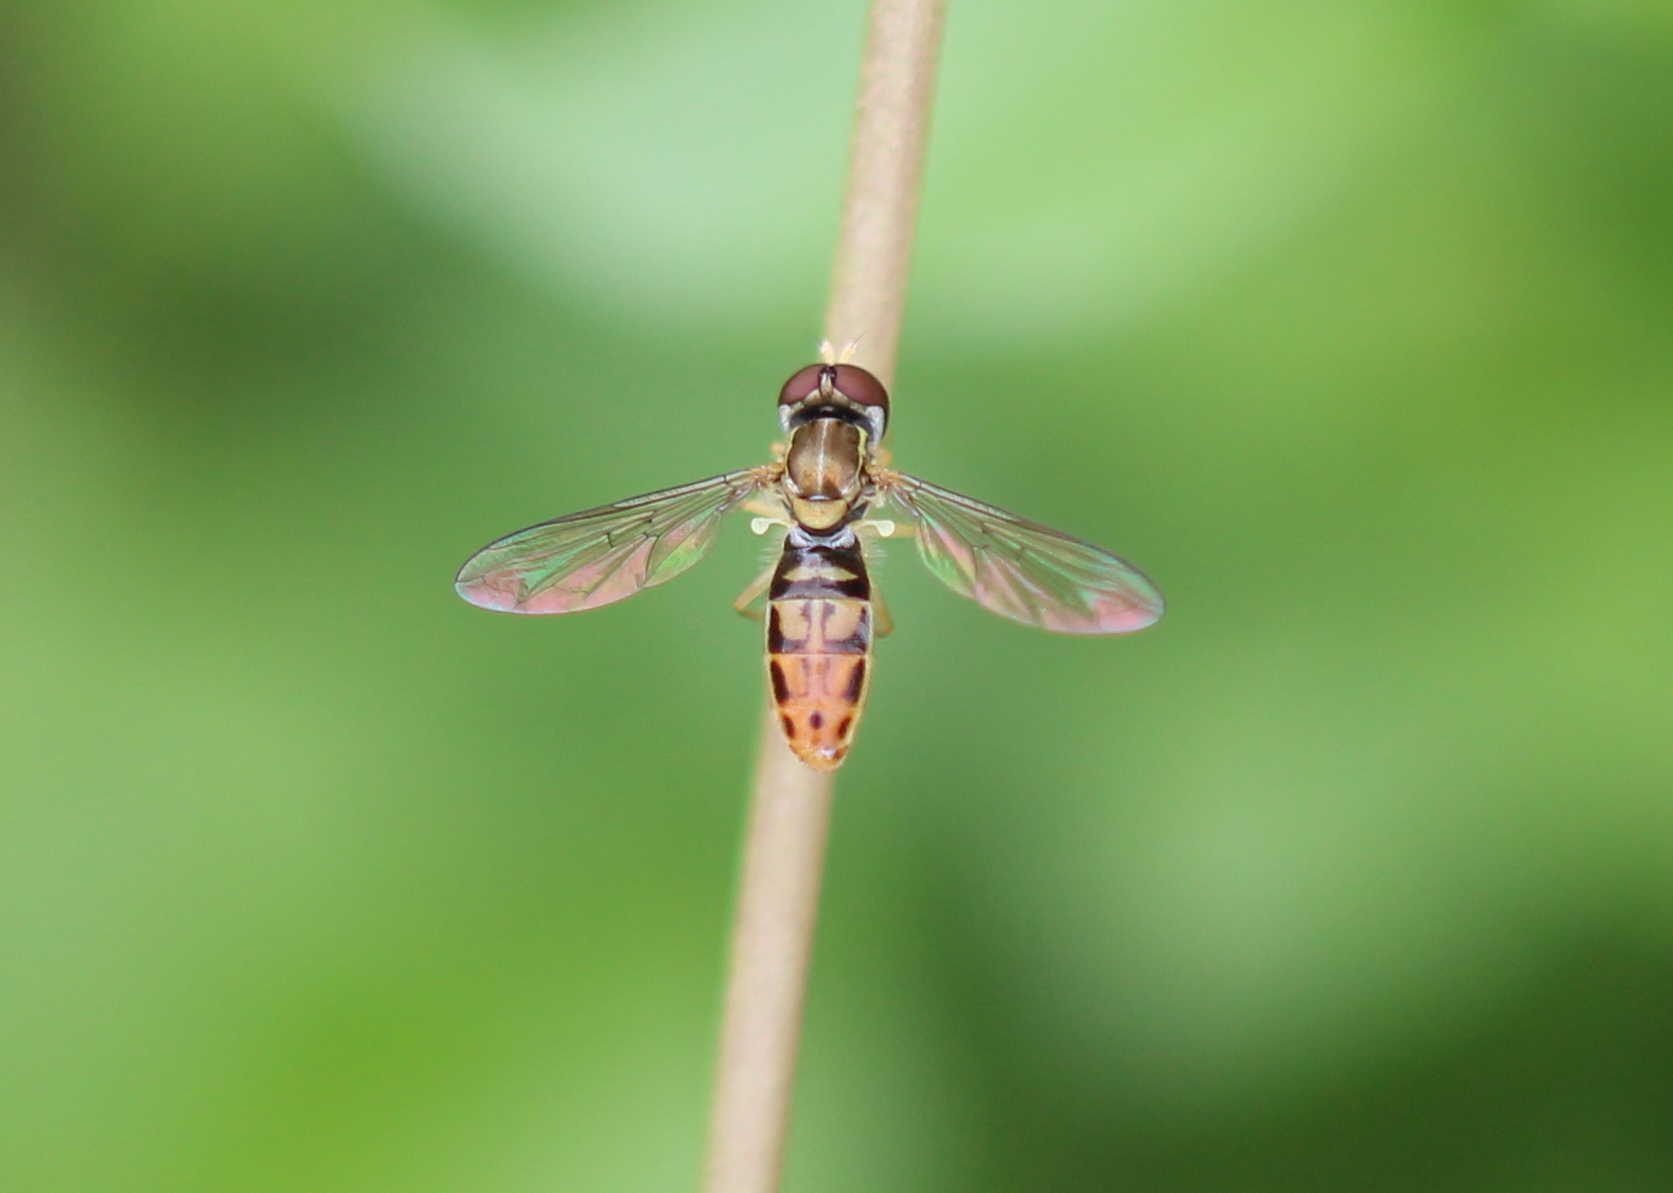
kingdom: Animalia
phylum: Arthropoda
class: Insecta
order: Diptera
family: Syrphidae
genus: Toxomerus
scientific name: Toxomerus marginatus
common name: Syrphid fly
